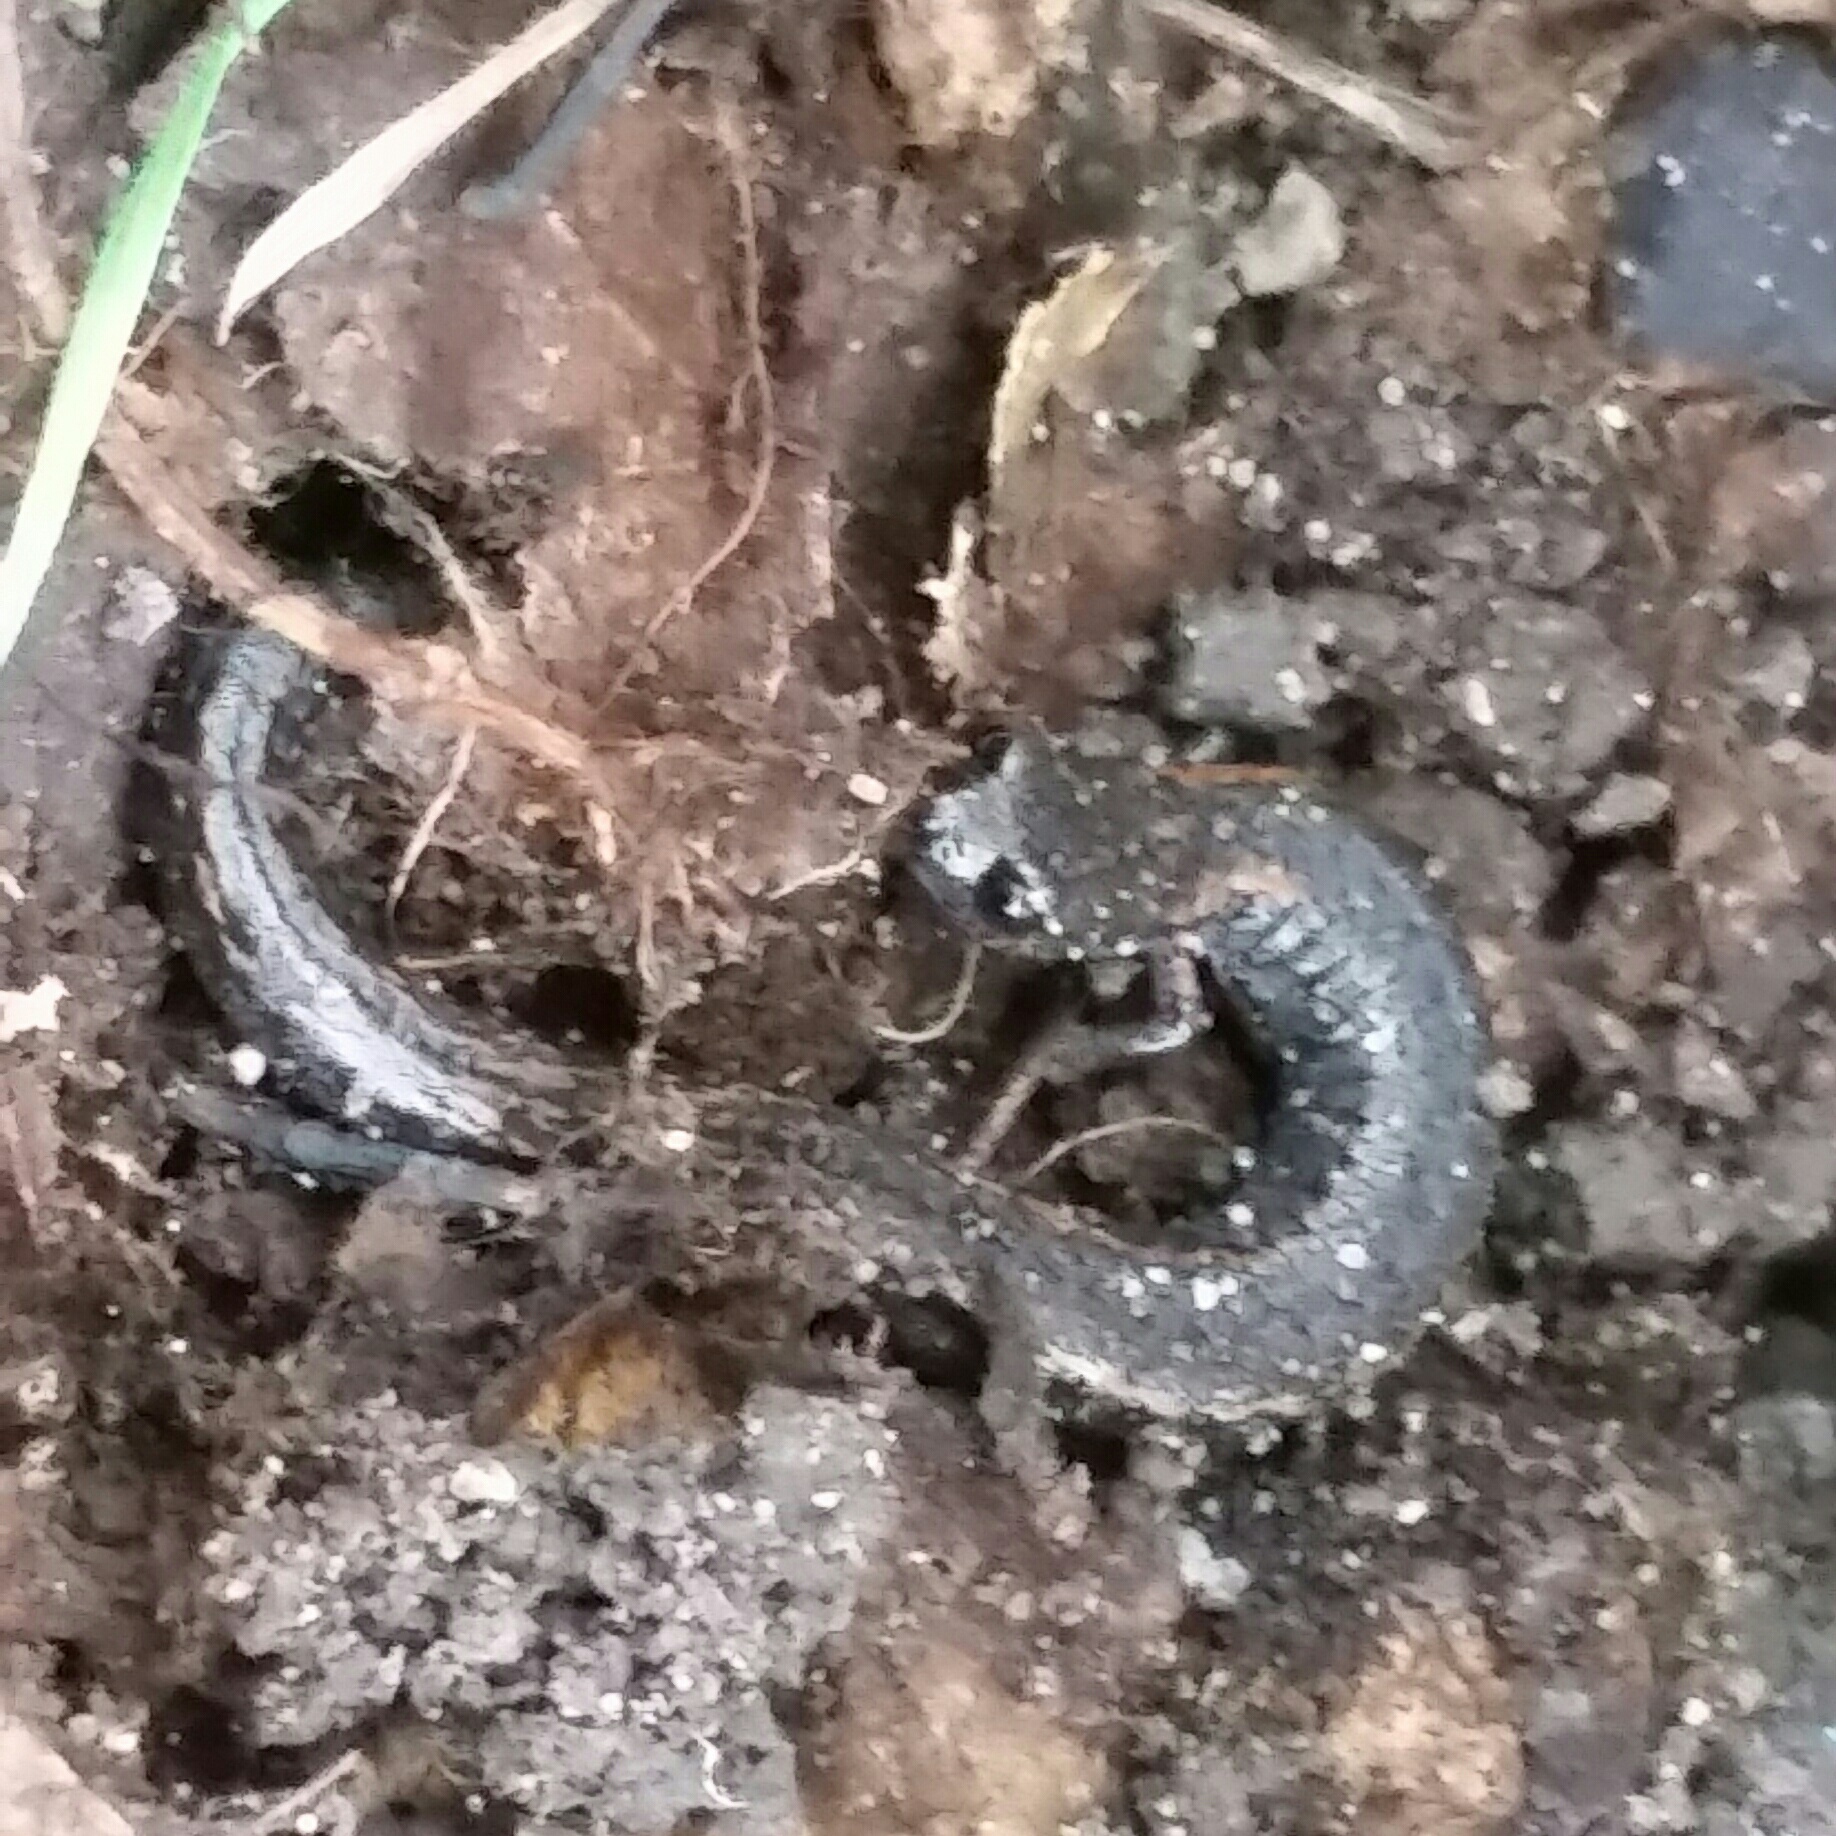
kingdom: Animalia
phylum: Chordata
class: Amphibia
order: Caudata
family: Plethodontidae
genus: Batrachoseps
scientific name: Batrachoseps attenuatus
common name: California slender salamander
